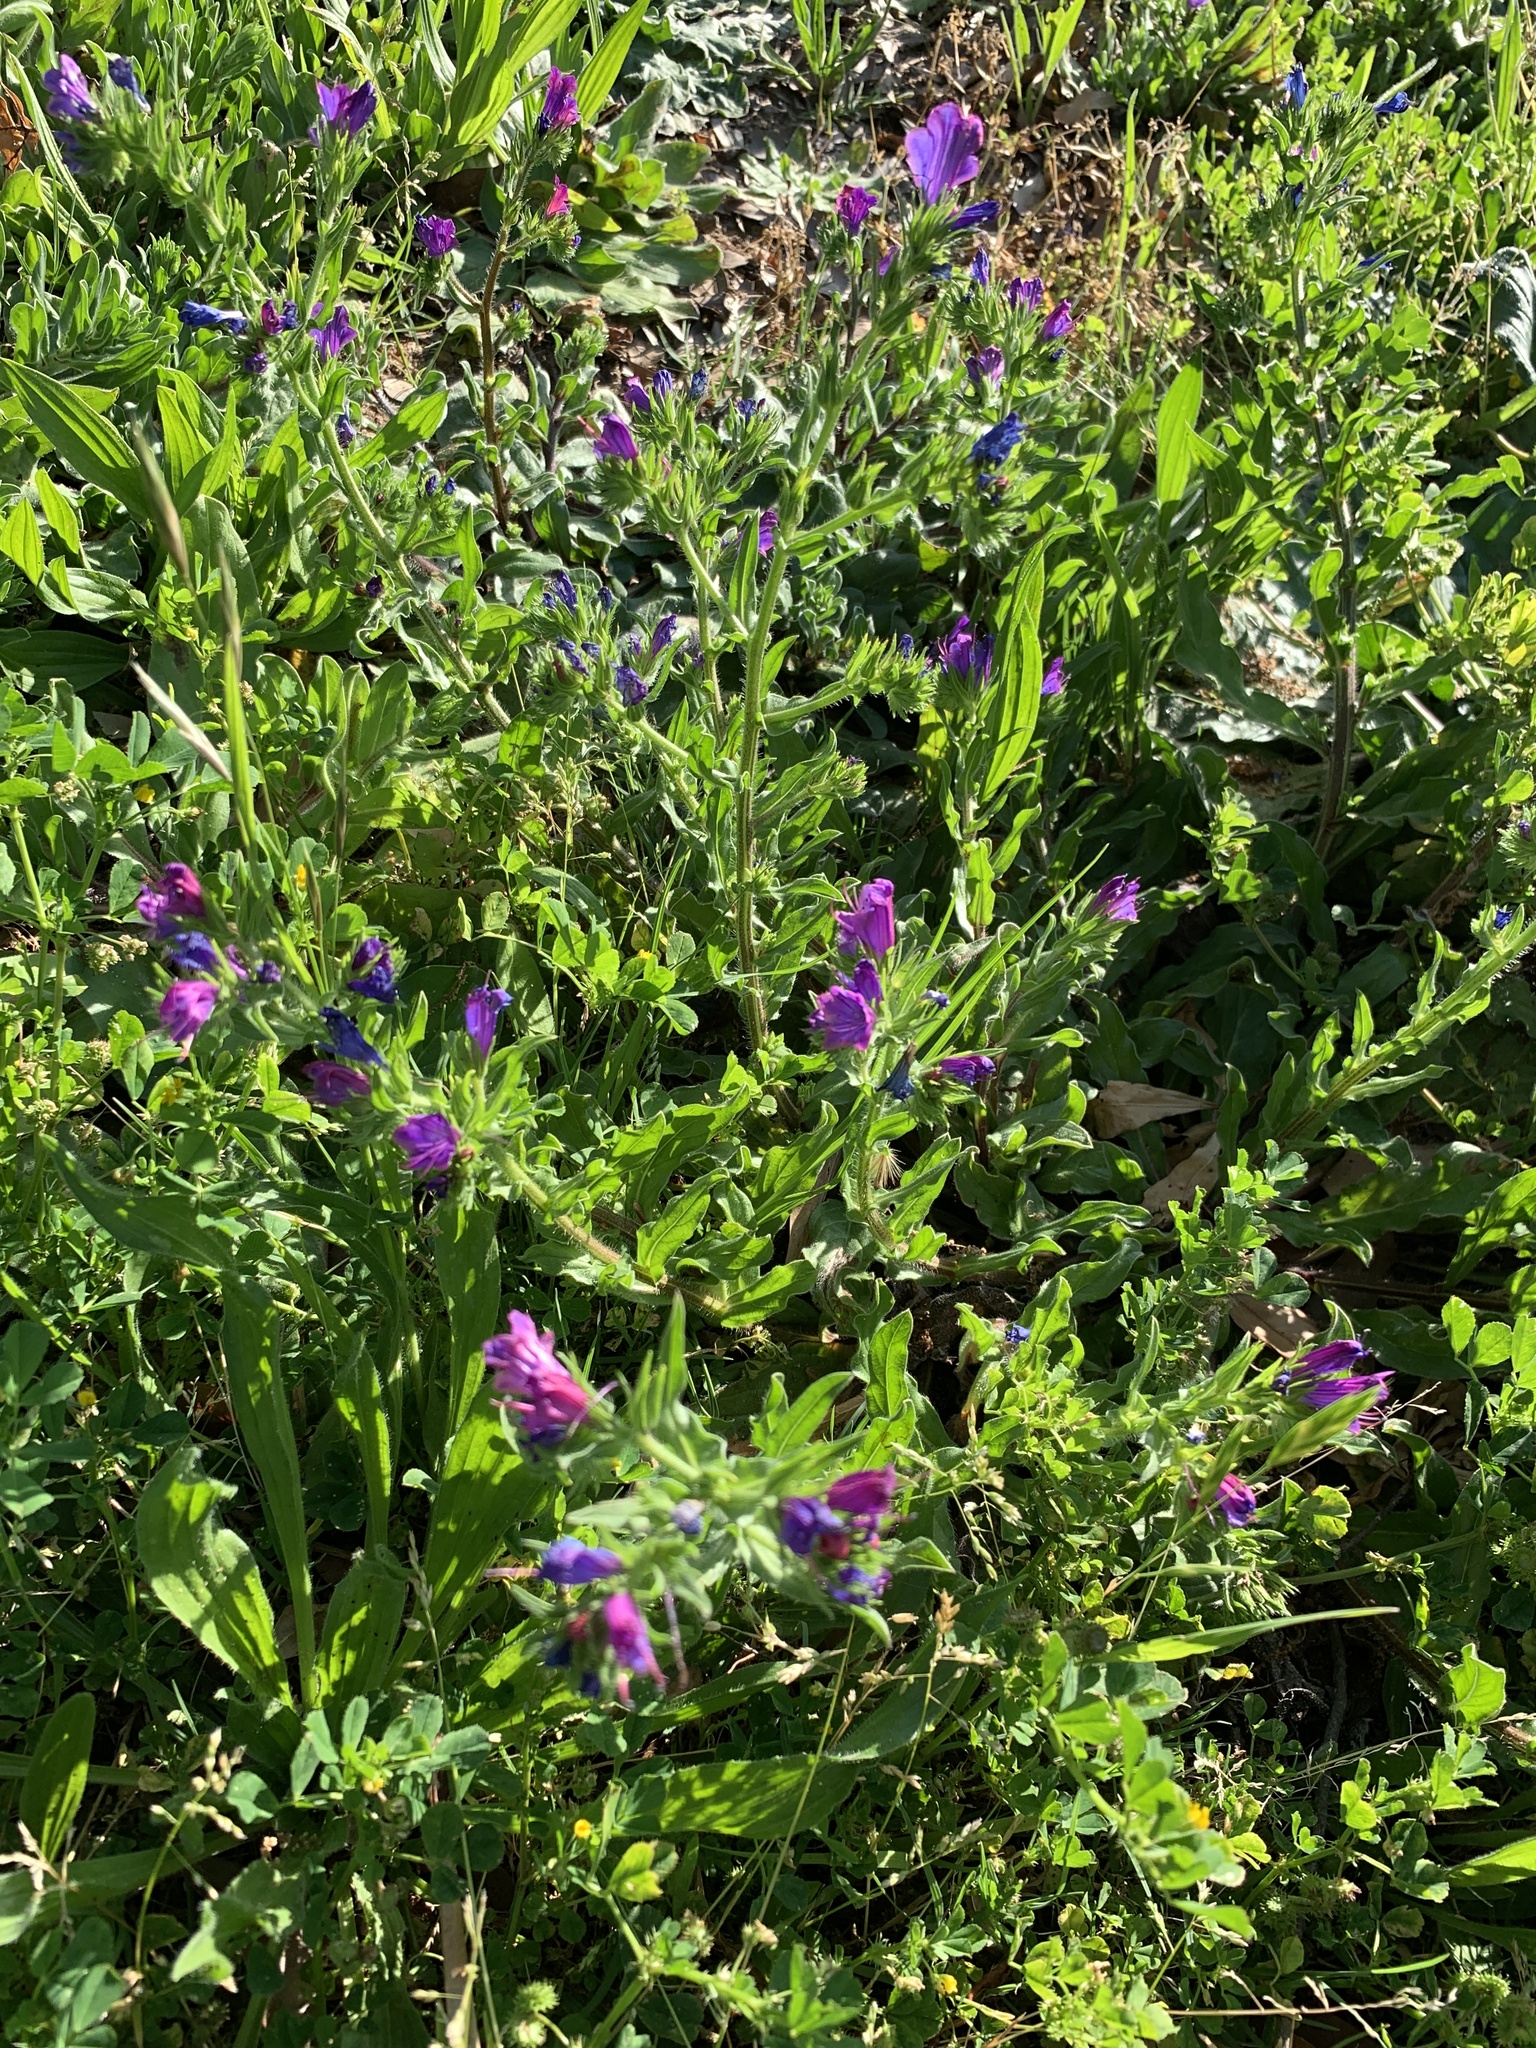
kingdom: Plantae
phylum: Tracheophyta
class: Magnoliopsida
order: Boraginales
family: Boraginaceae
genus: Echium
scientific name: Echium plantagineum
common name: Purple viper's-bugloss
